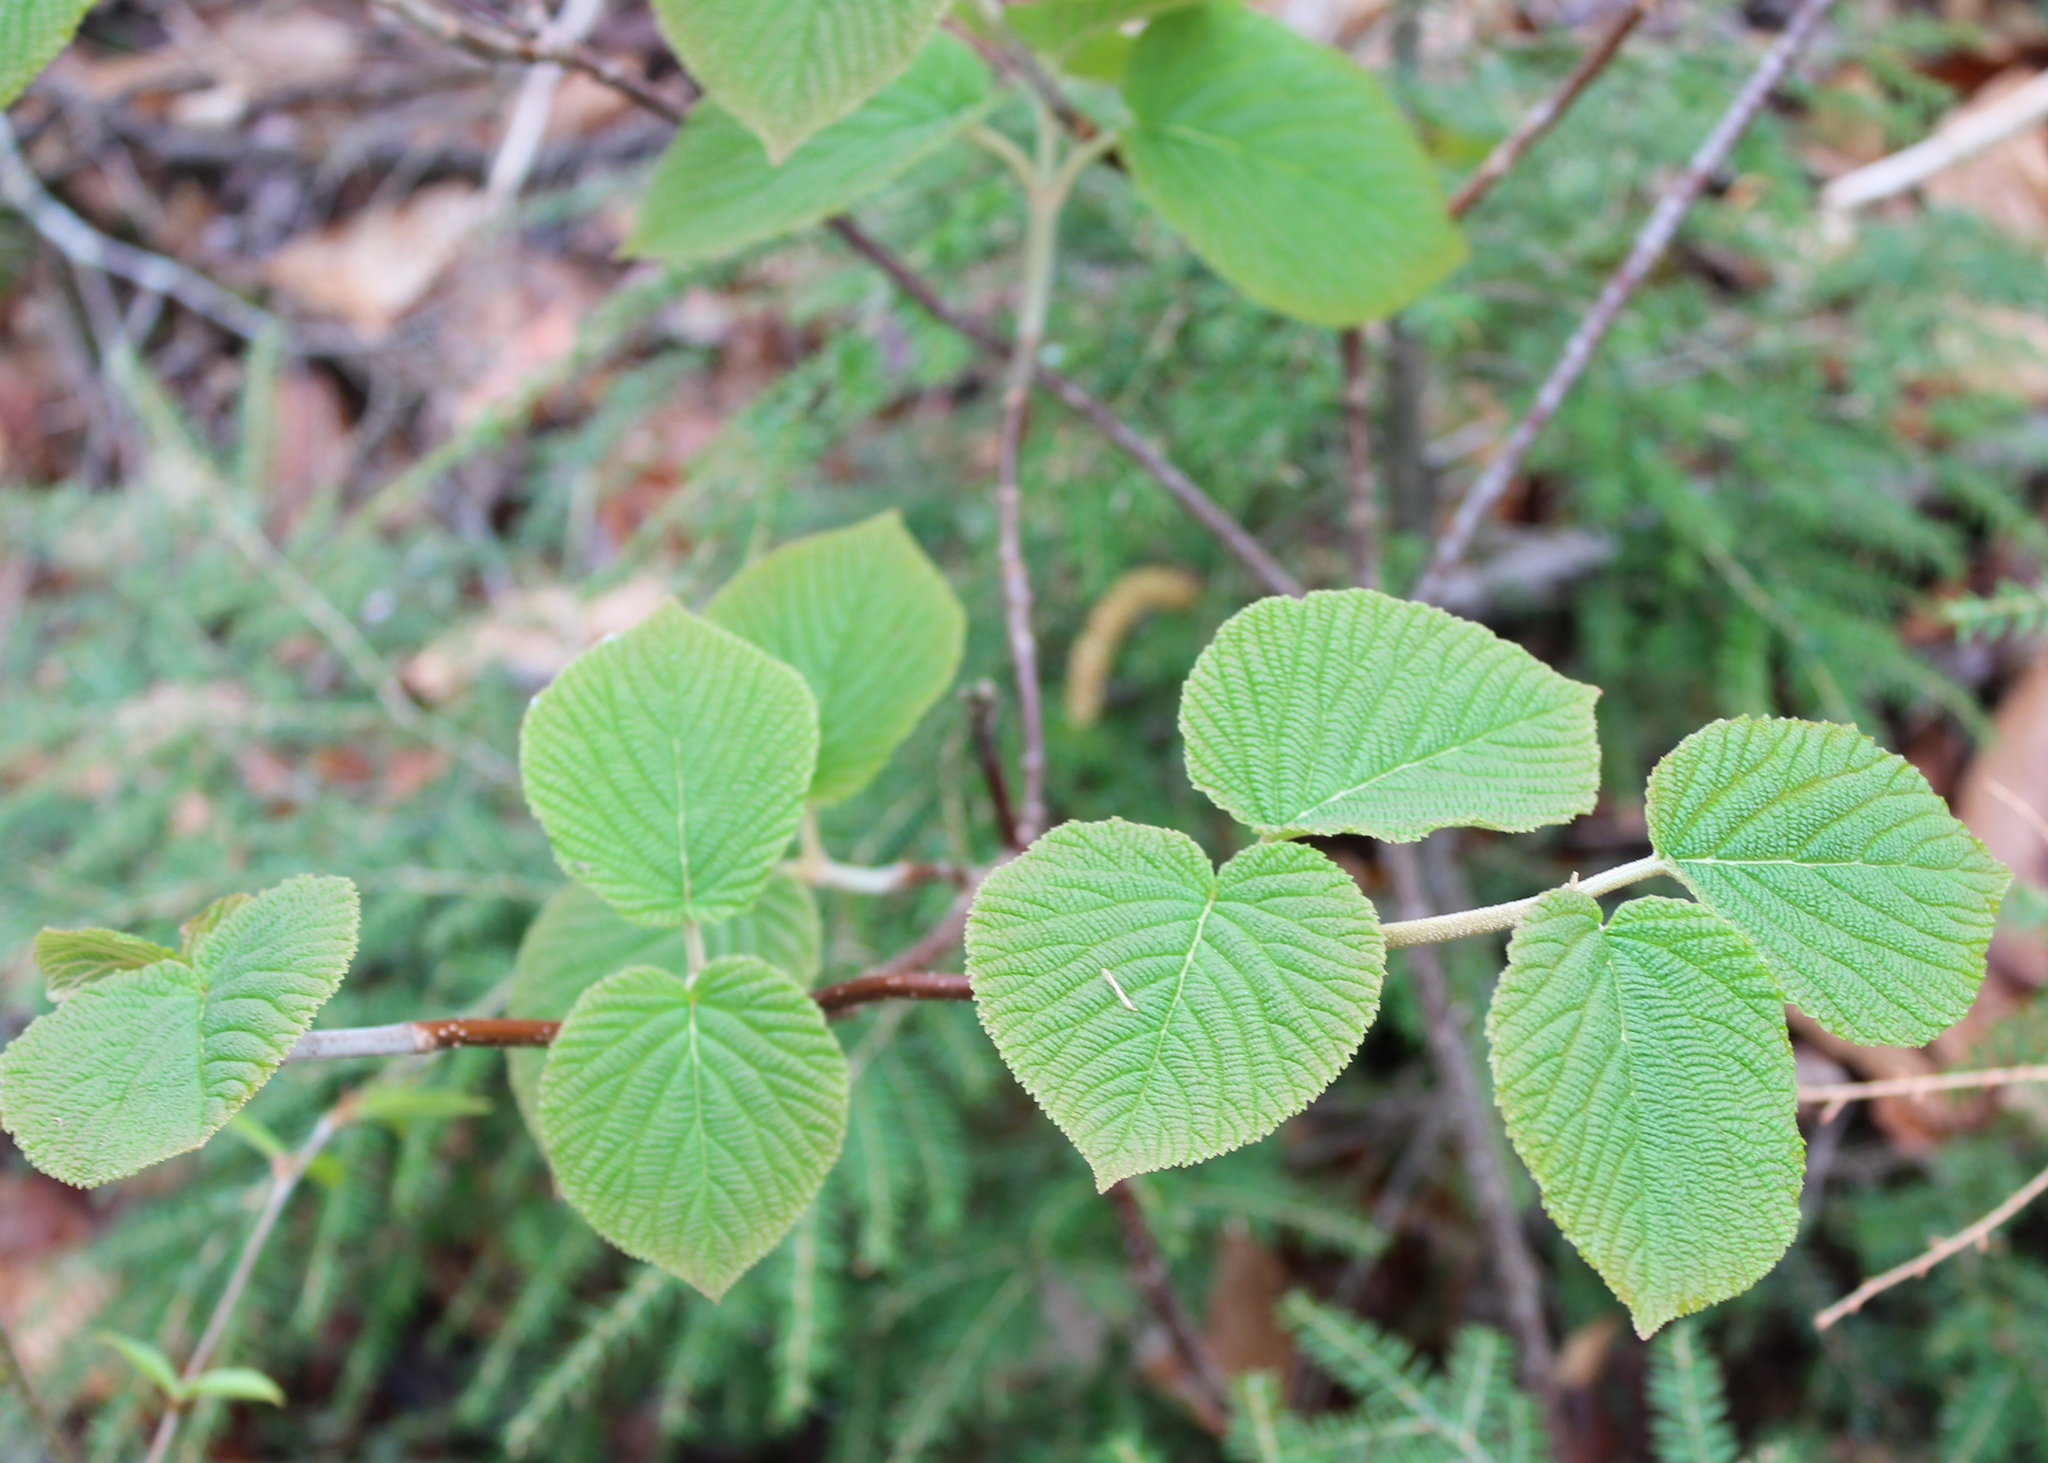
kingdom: Plantae
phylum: Tracheophyta
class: Magnoliopsida
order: Dipsacales
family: Viburnaceae
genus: Viburnum
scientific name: Viburnum lantanoides
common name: Hobblebush
